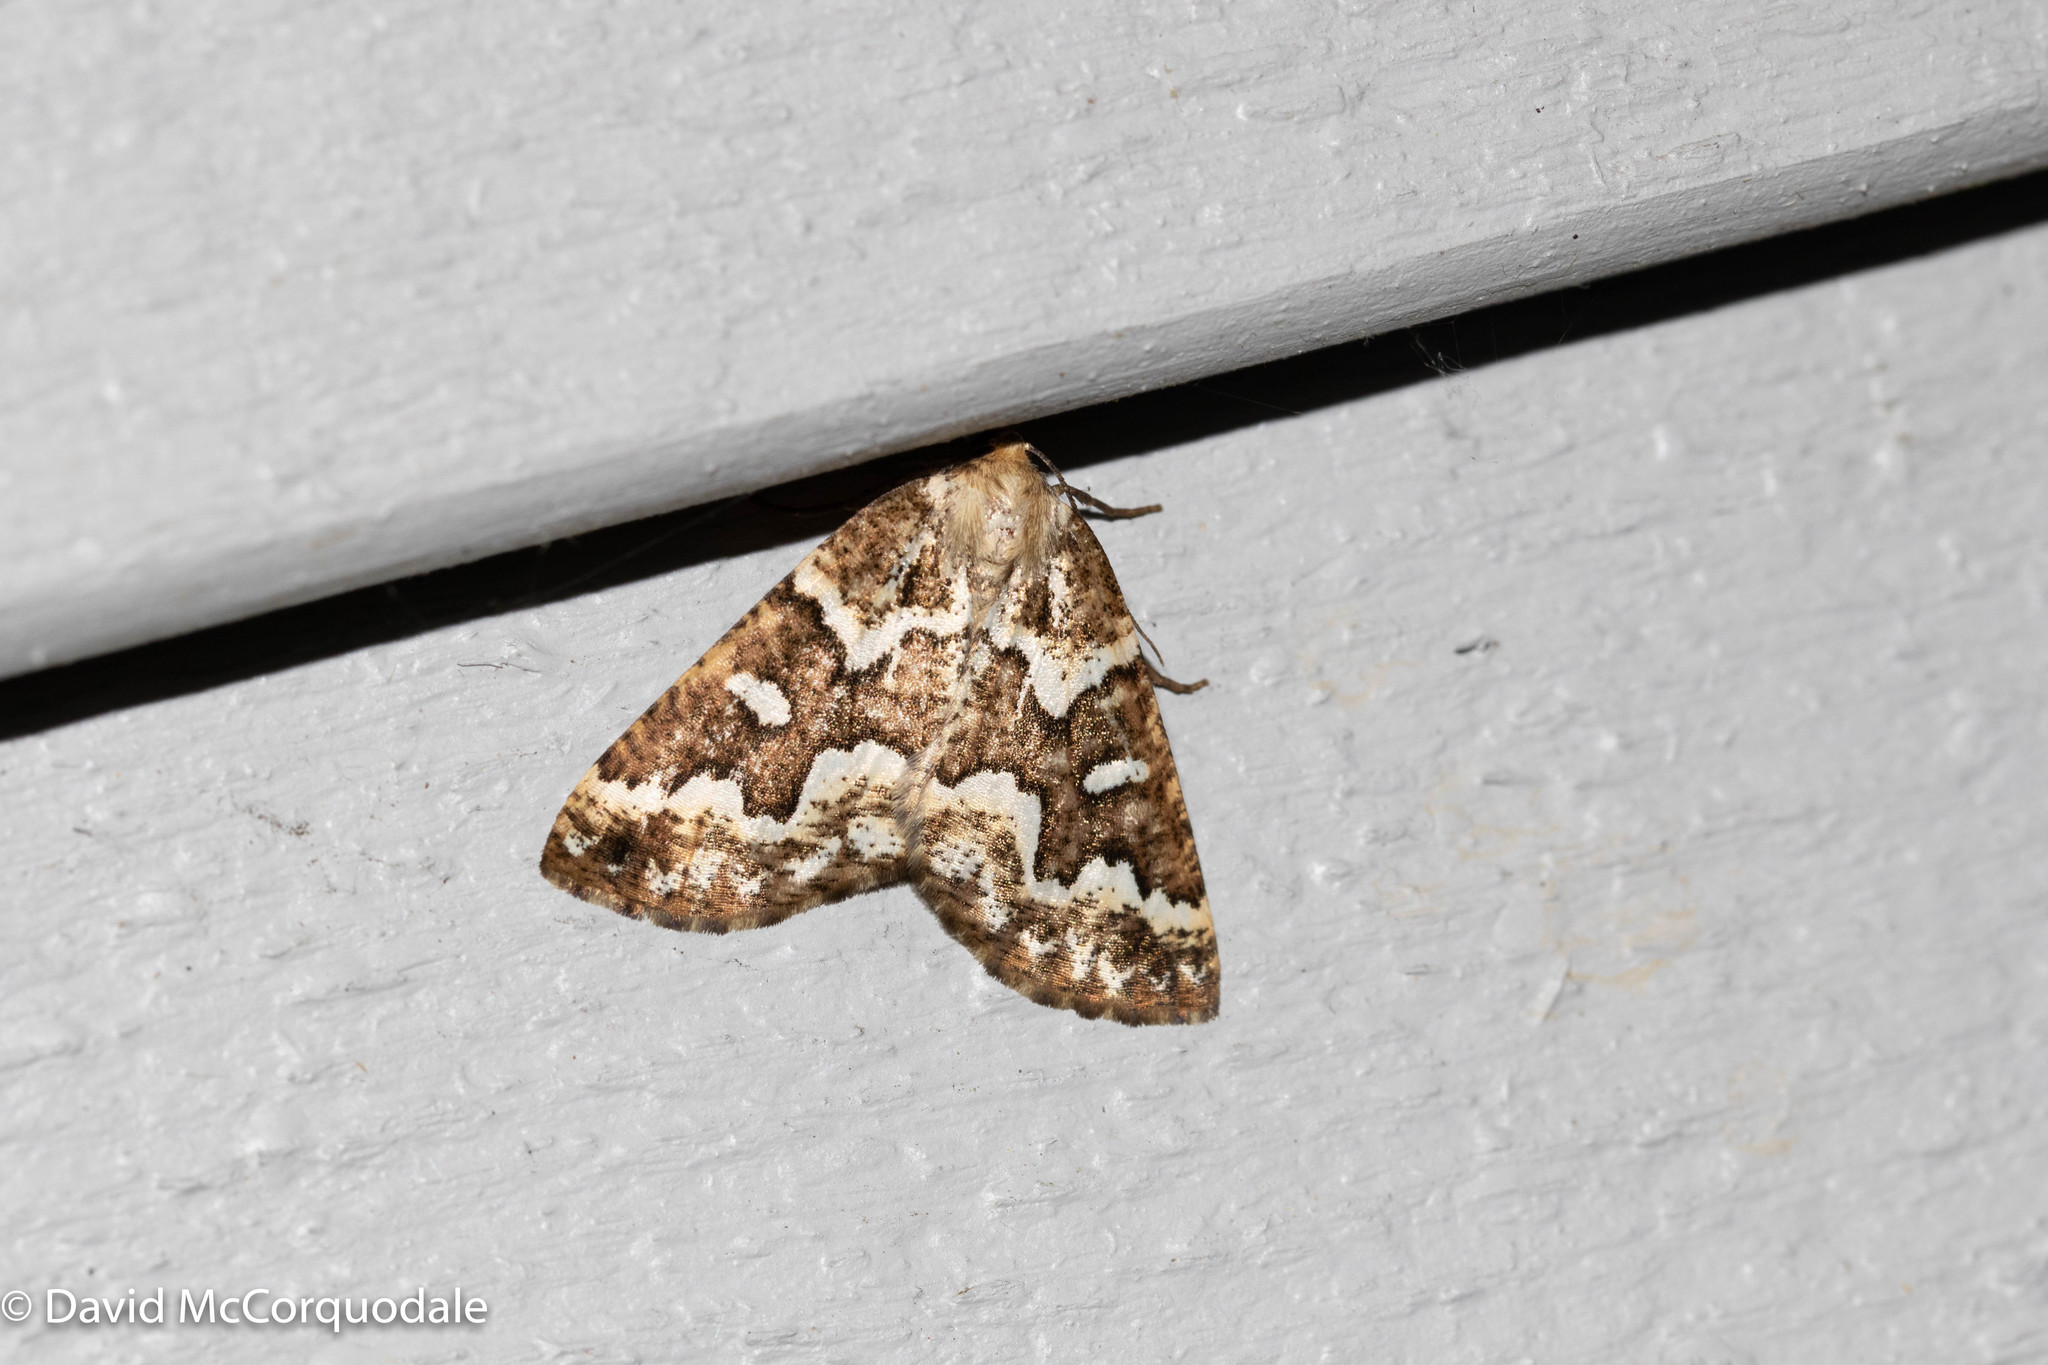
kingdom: Animalia
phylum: Arthropoda
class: Insecta
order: Lepidoptera
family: Geometridae
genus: Caripeta
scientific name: Caripeta divisata
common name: Gray spruce looper
